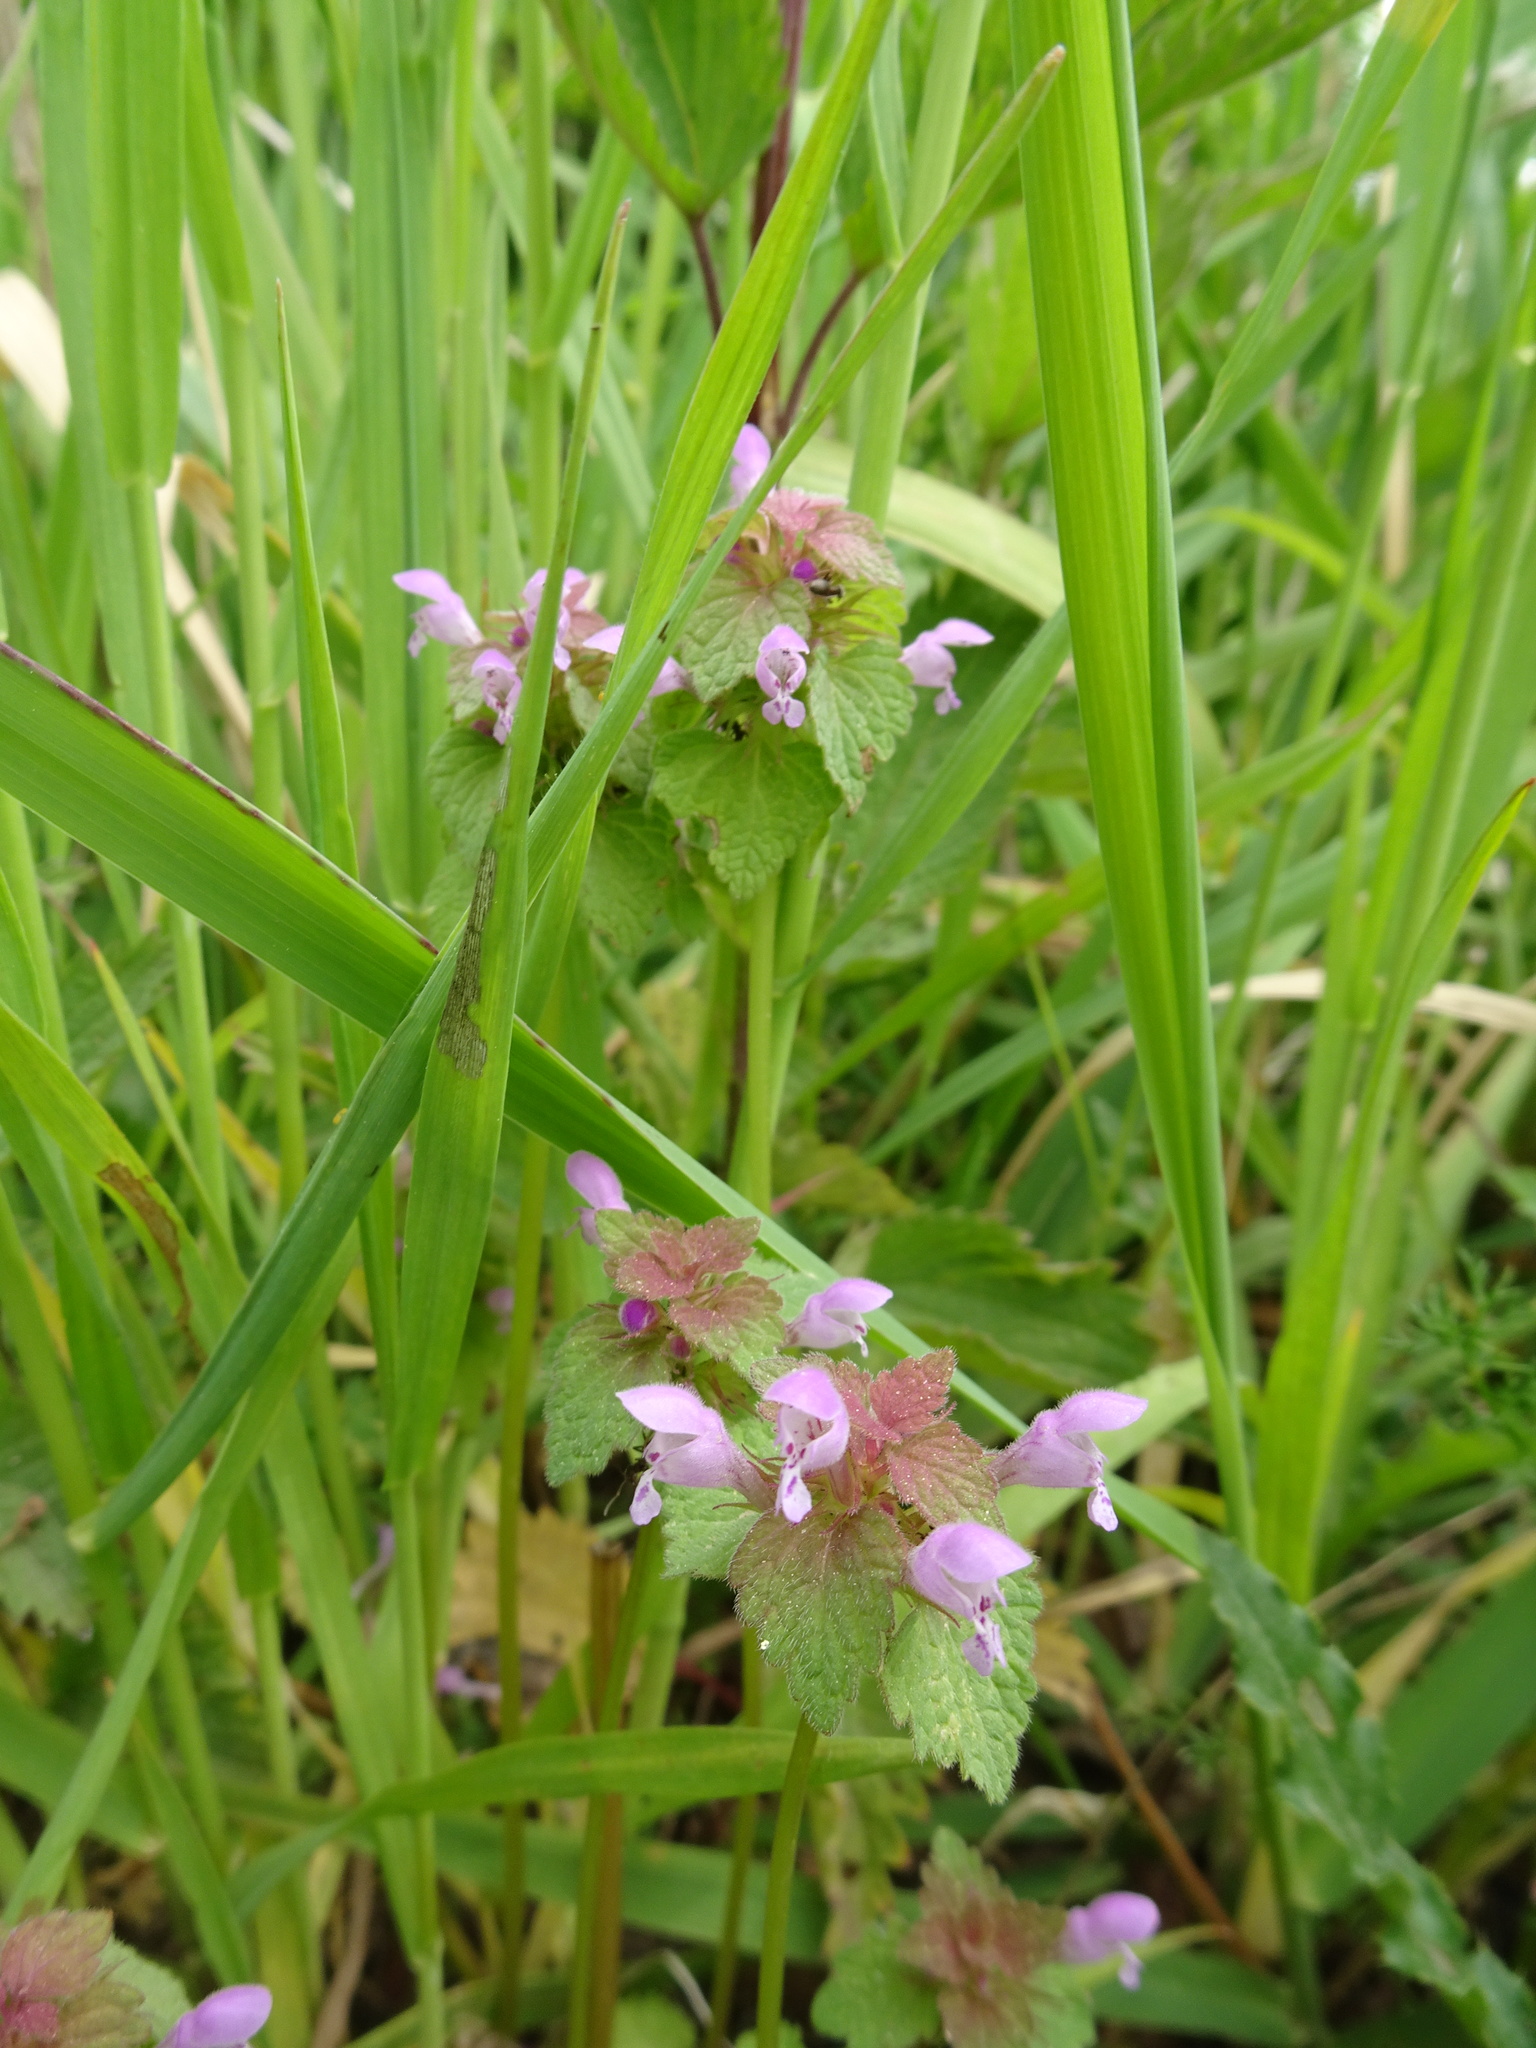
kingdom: Plantae
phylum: Tracheophyta
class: Magnoliopsida
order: Lamiales
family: Lamiaceae
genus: Lamium
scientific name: Lamium purpureum
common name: Red dead-nettle
